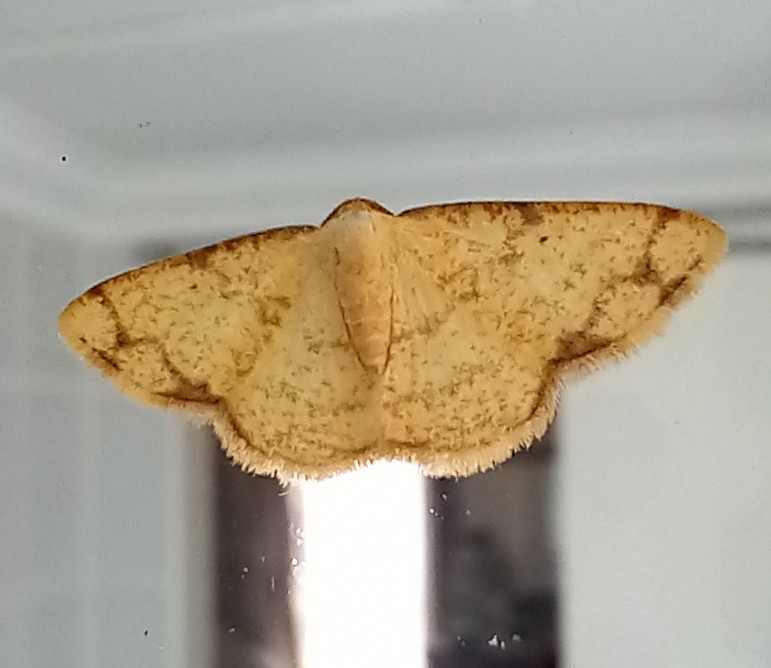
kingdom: Animalia
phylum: Arthropoda
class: Insecta
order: Lepidoptera
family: Geometridae
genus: Lomographa
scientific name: Lomographa indularia
